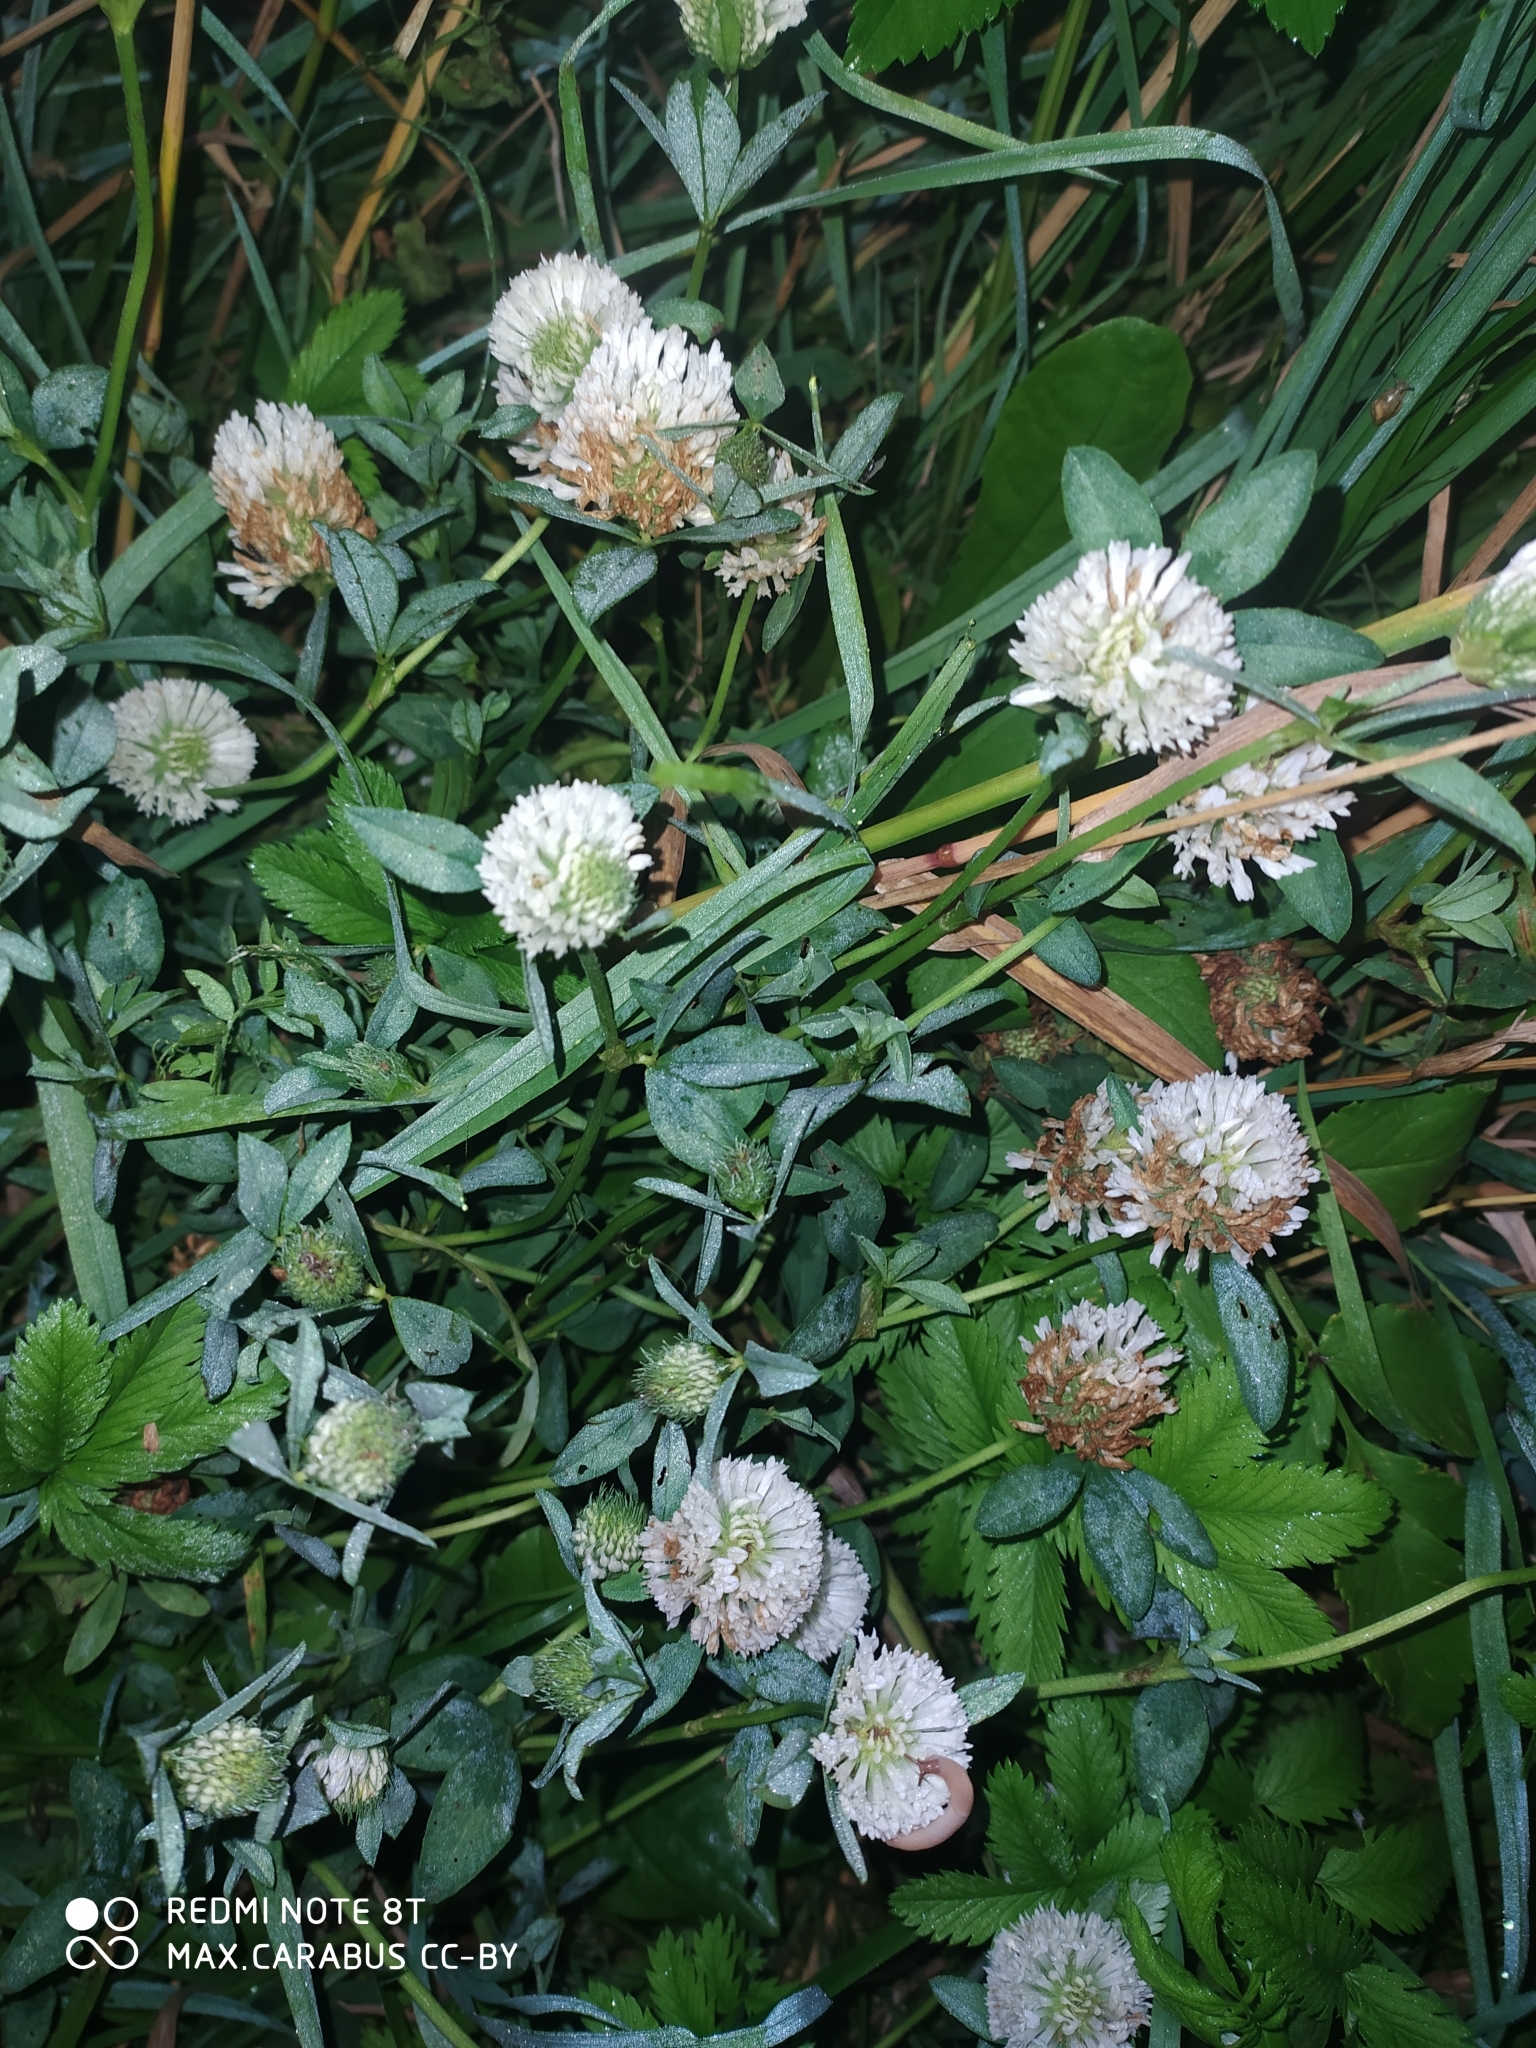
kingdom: Plantae
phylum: Tracheophyta
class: Magnoliopsida
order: Fabales
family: Fabaceae
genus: Trifolium
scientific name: Trifolium repens
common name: White clover
